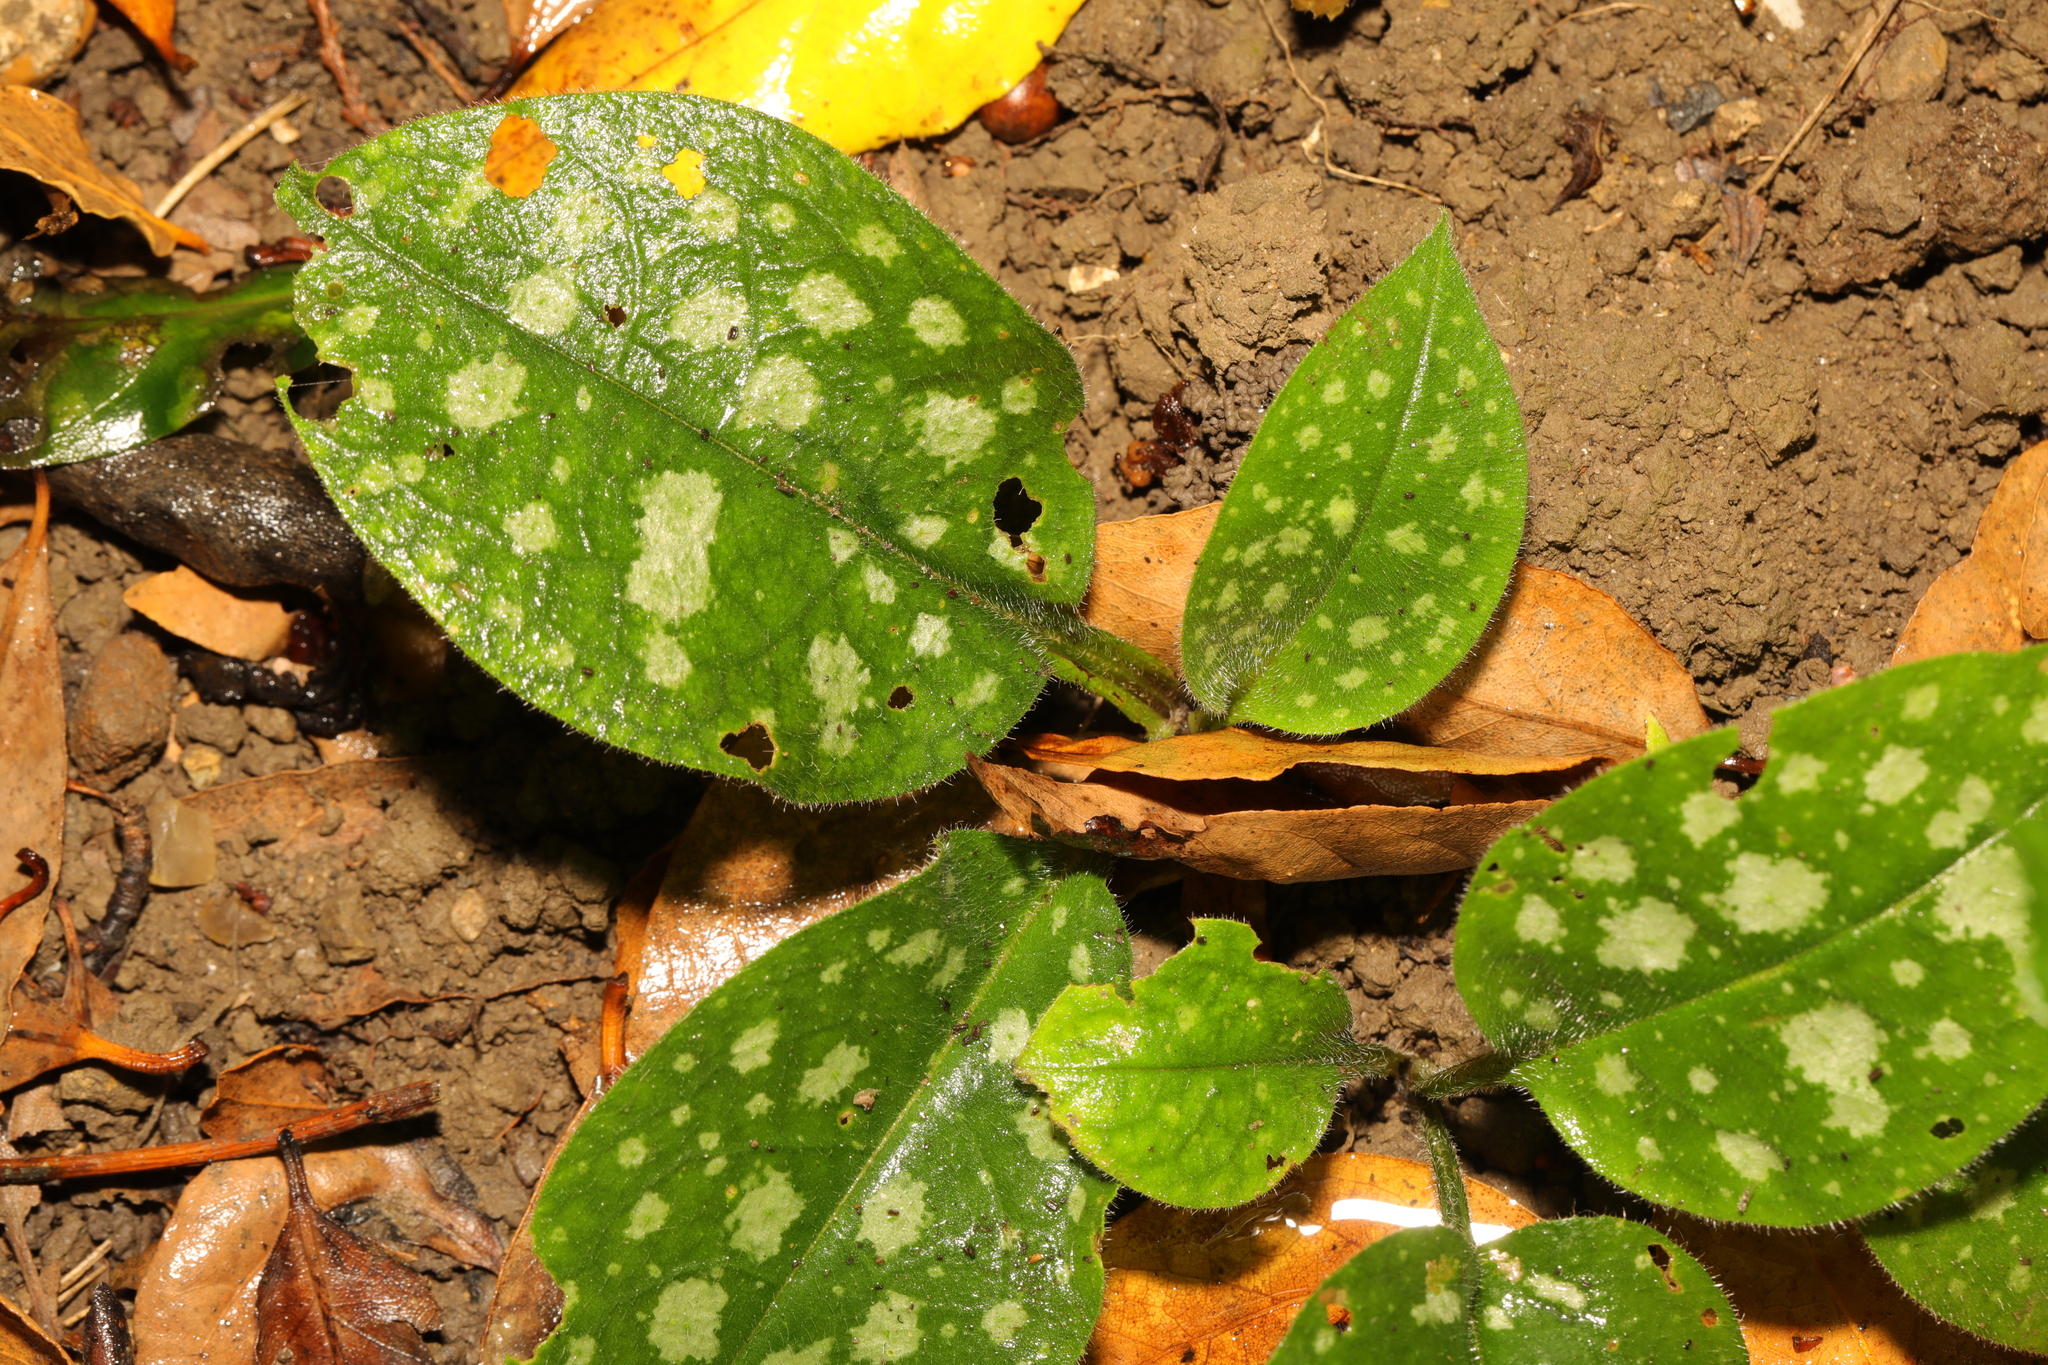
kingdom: Plantae
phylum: Tracheophyta
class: Magnoliopsida
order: Boraginales
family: Boraginaceae
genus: Pulmonaria
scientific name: Pulmonaria officinalis
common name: Lungwort
